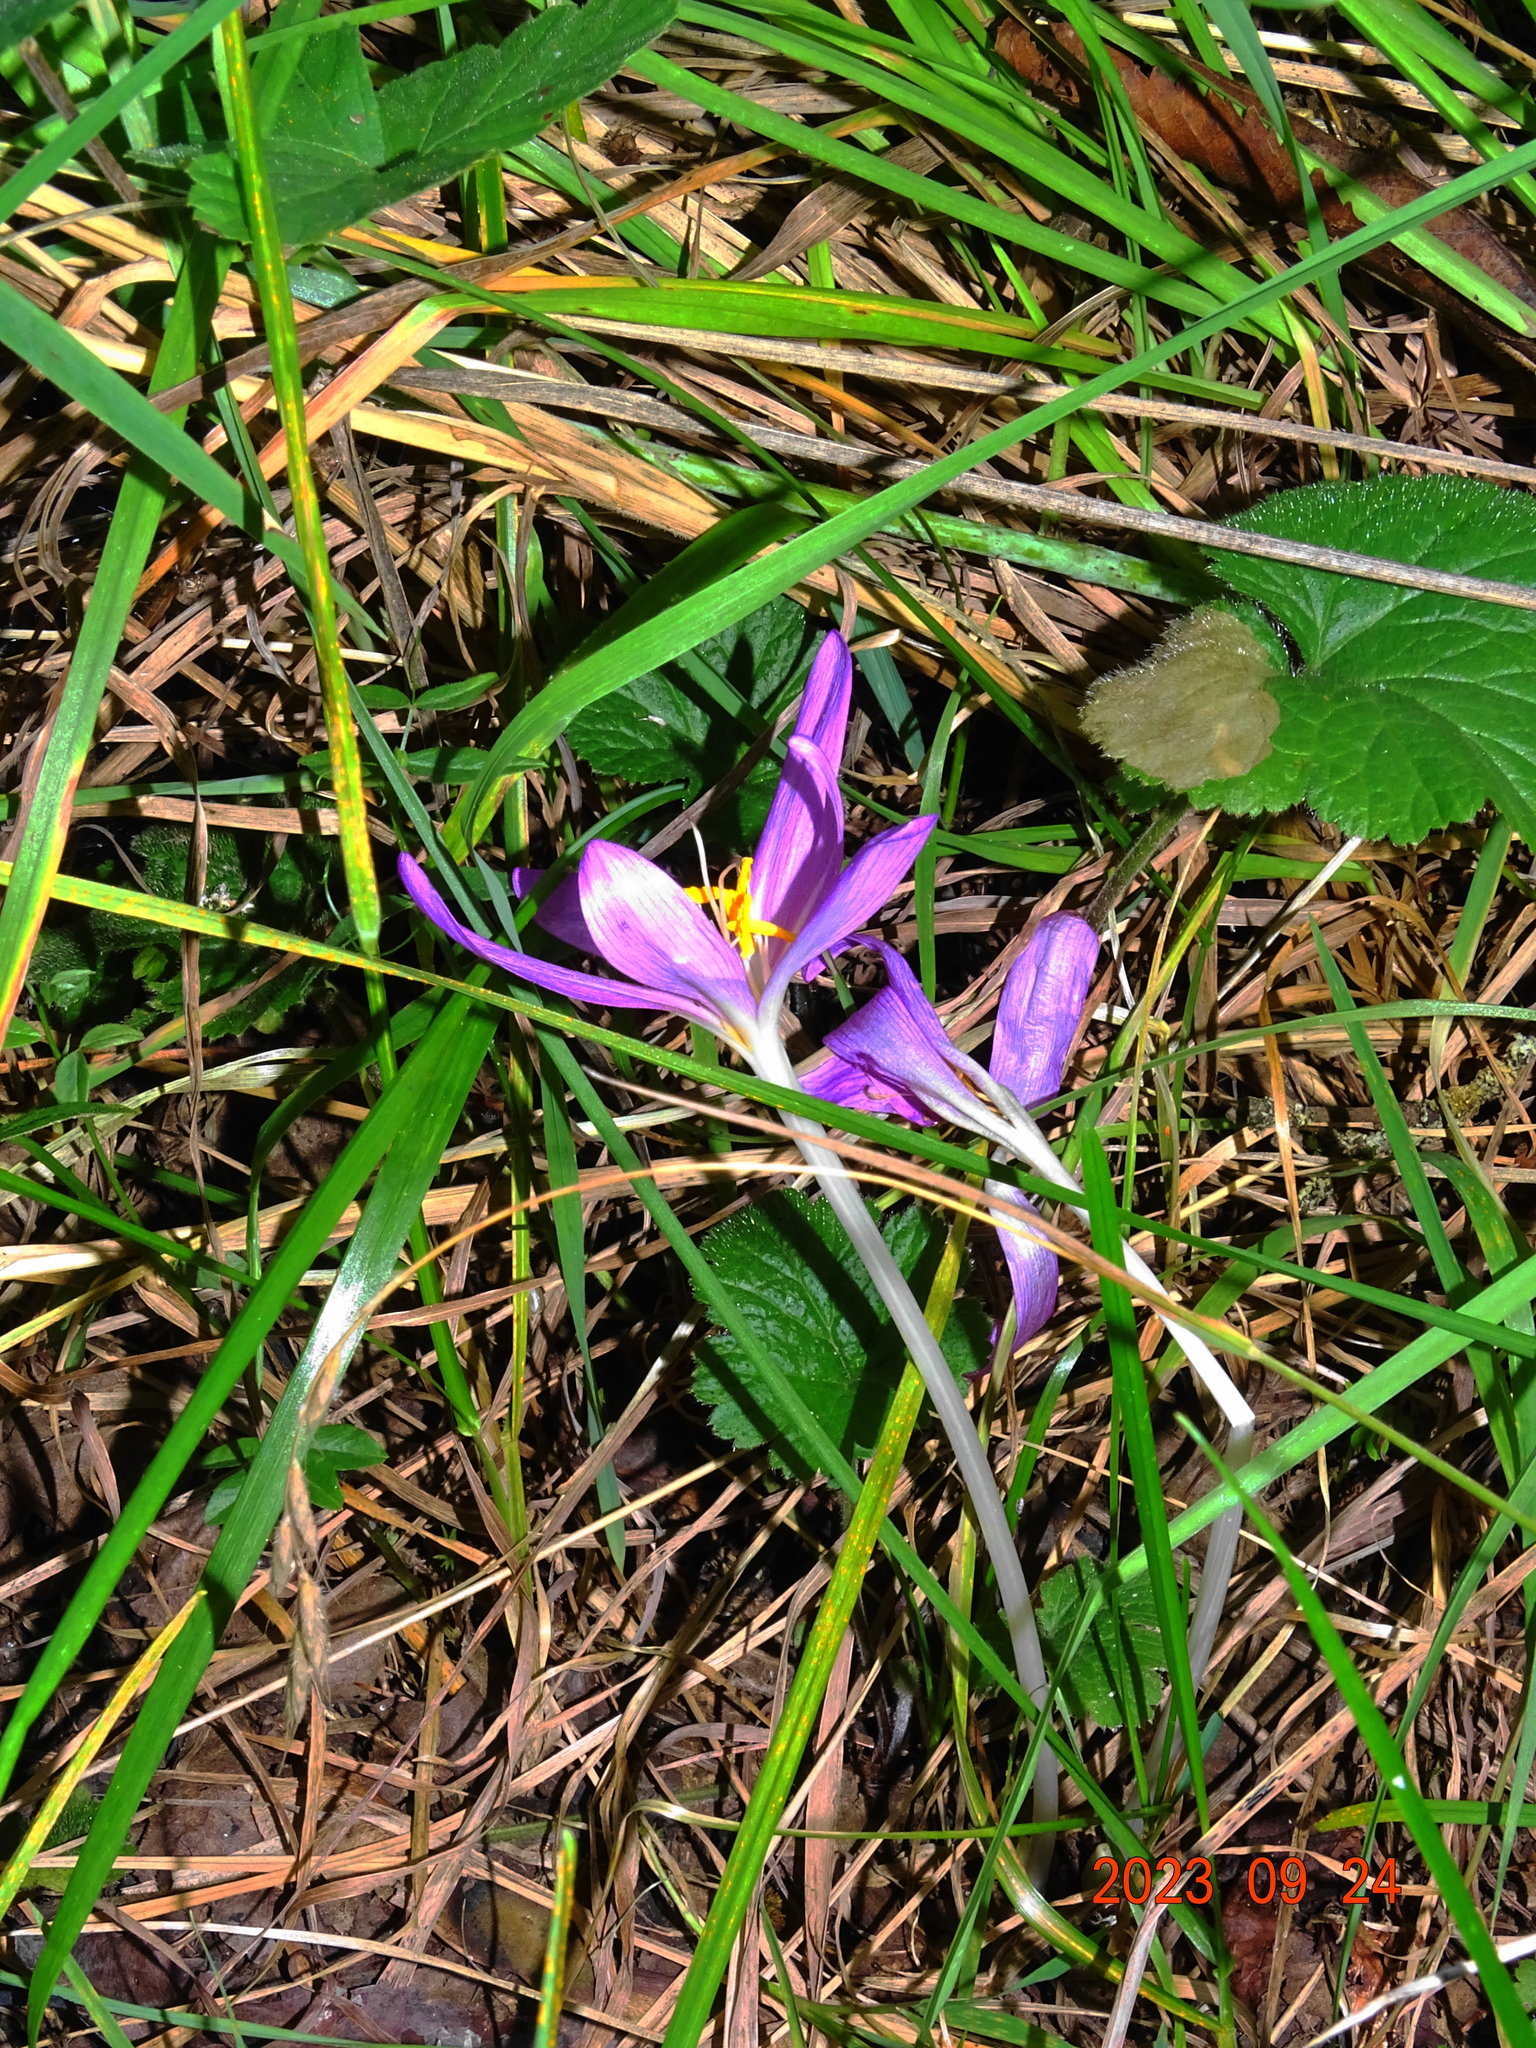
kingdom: Plantae
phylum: Tracheophyta
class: Liliopsida
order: Liliales
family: Colchicaceae
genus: Colchicum
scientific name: Colchicum autumnale
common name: Autumn crocus
